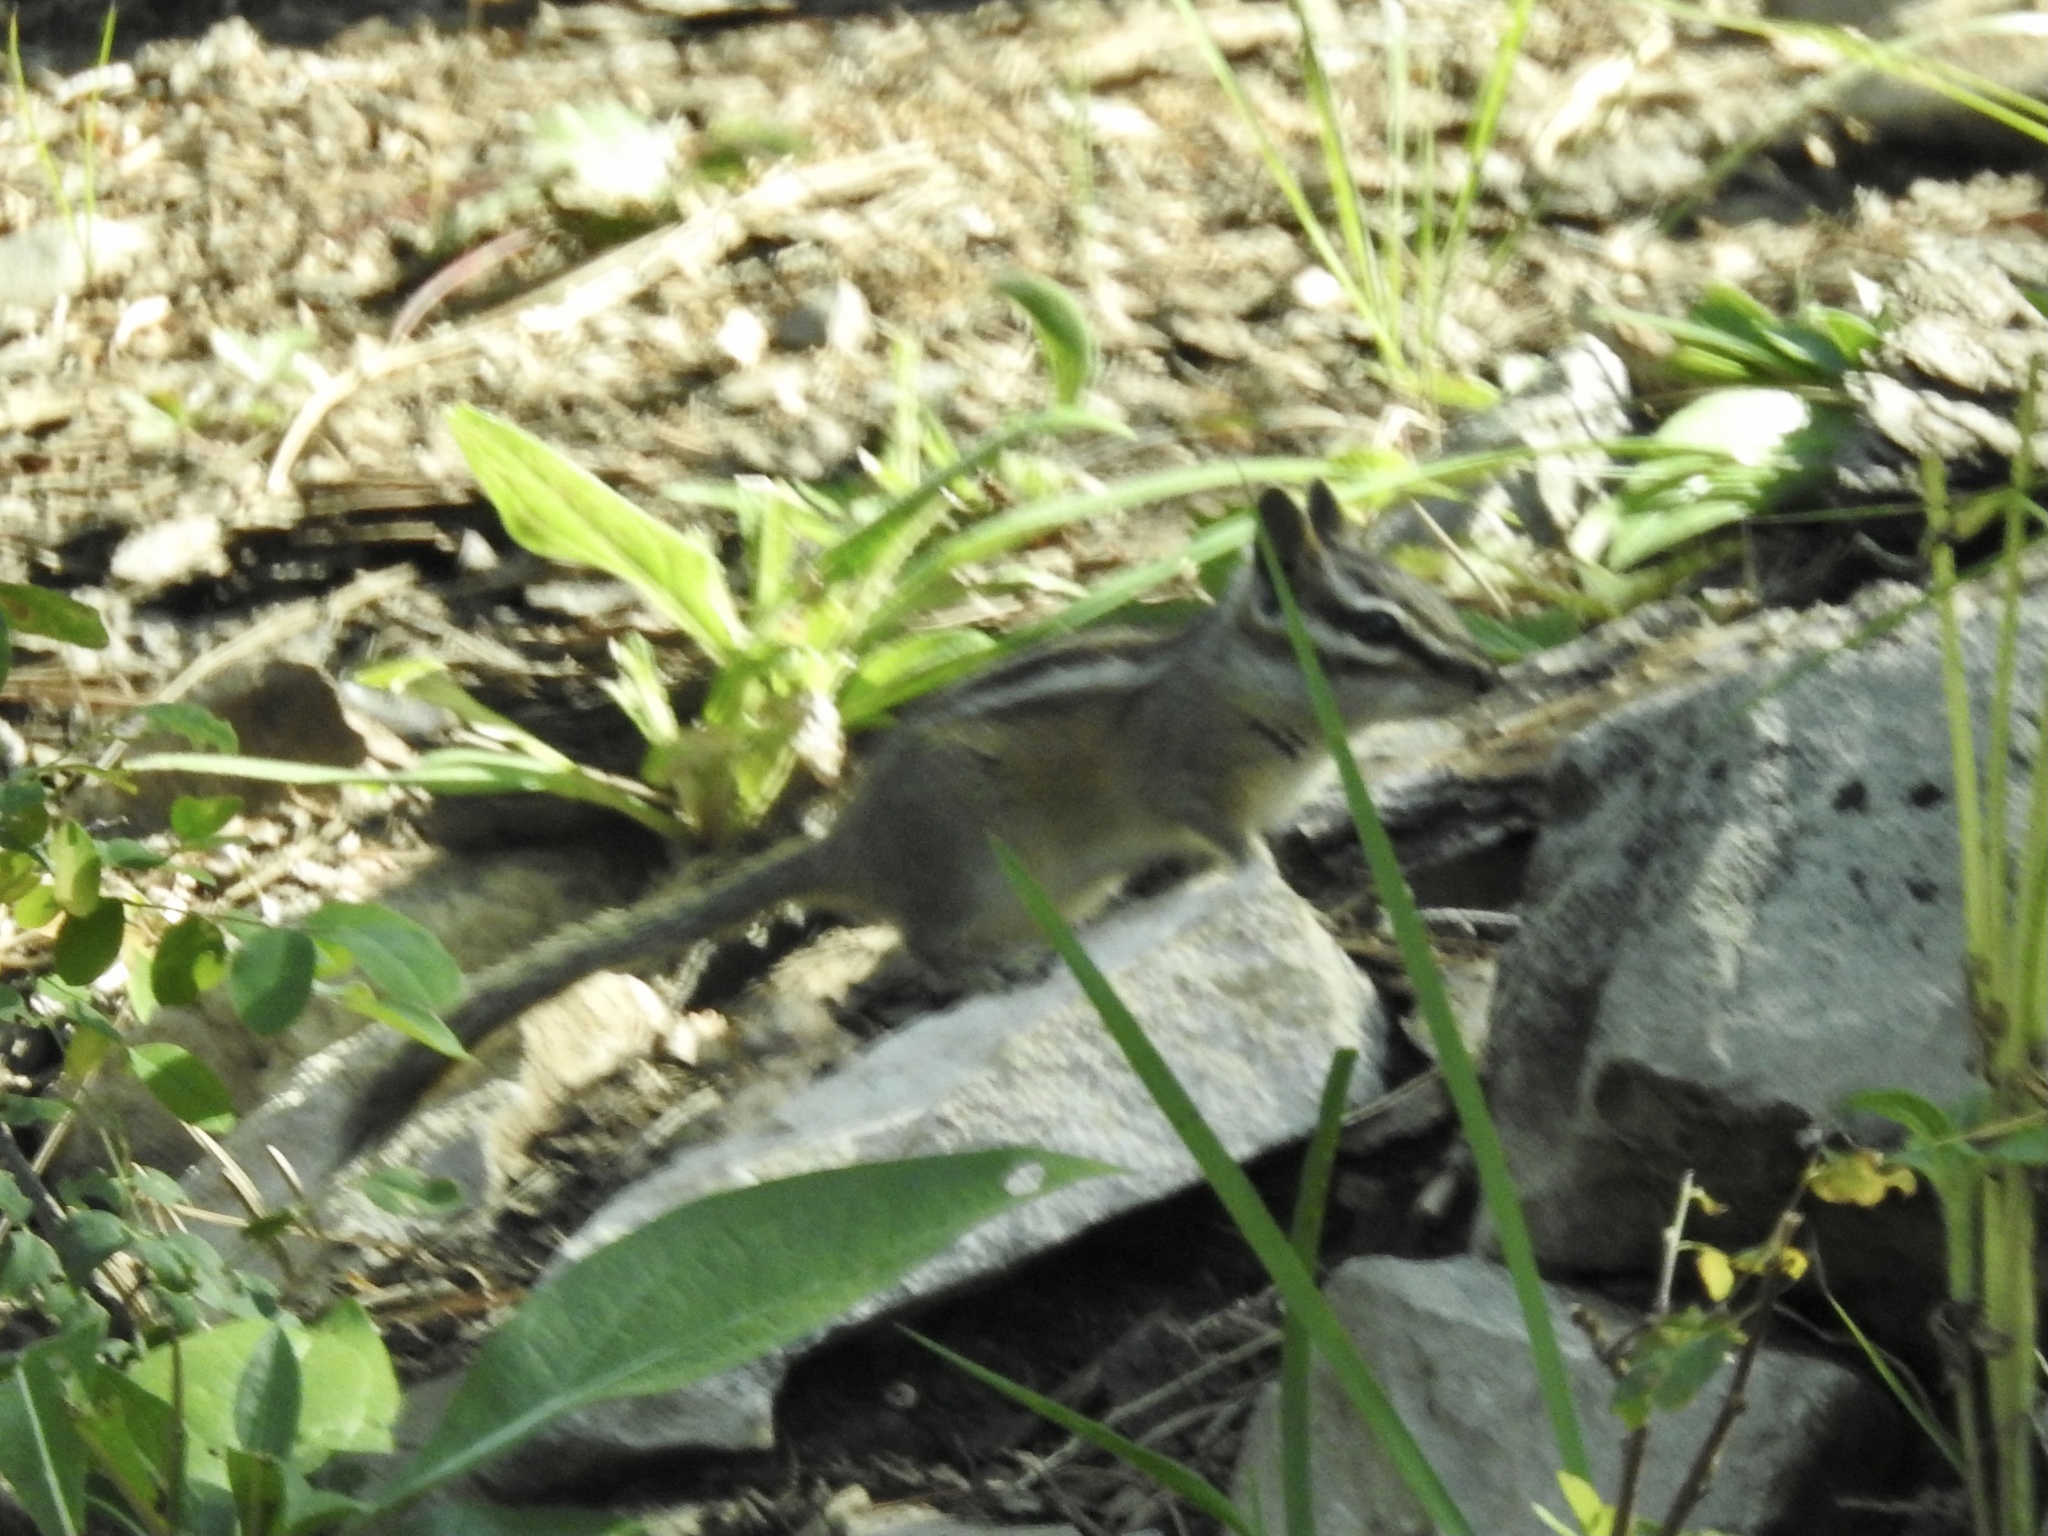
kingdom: Animalia
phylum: Chordata
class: Mammalia
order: Rodentia
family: Sciuridae
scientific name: Sciuridae
